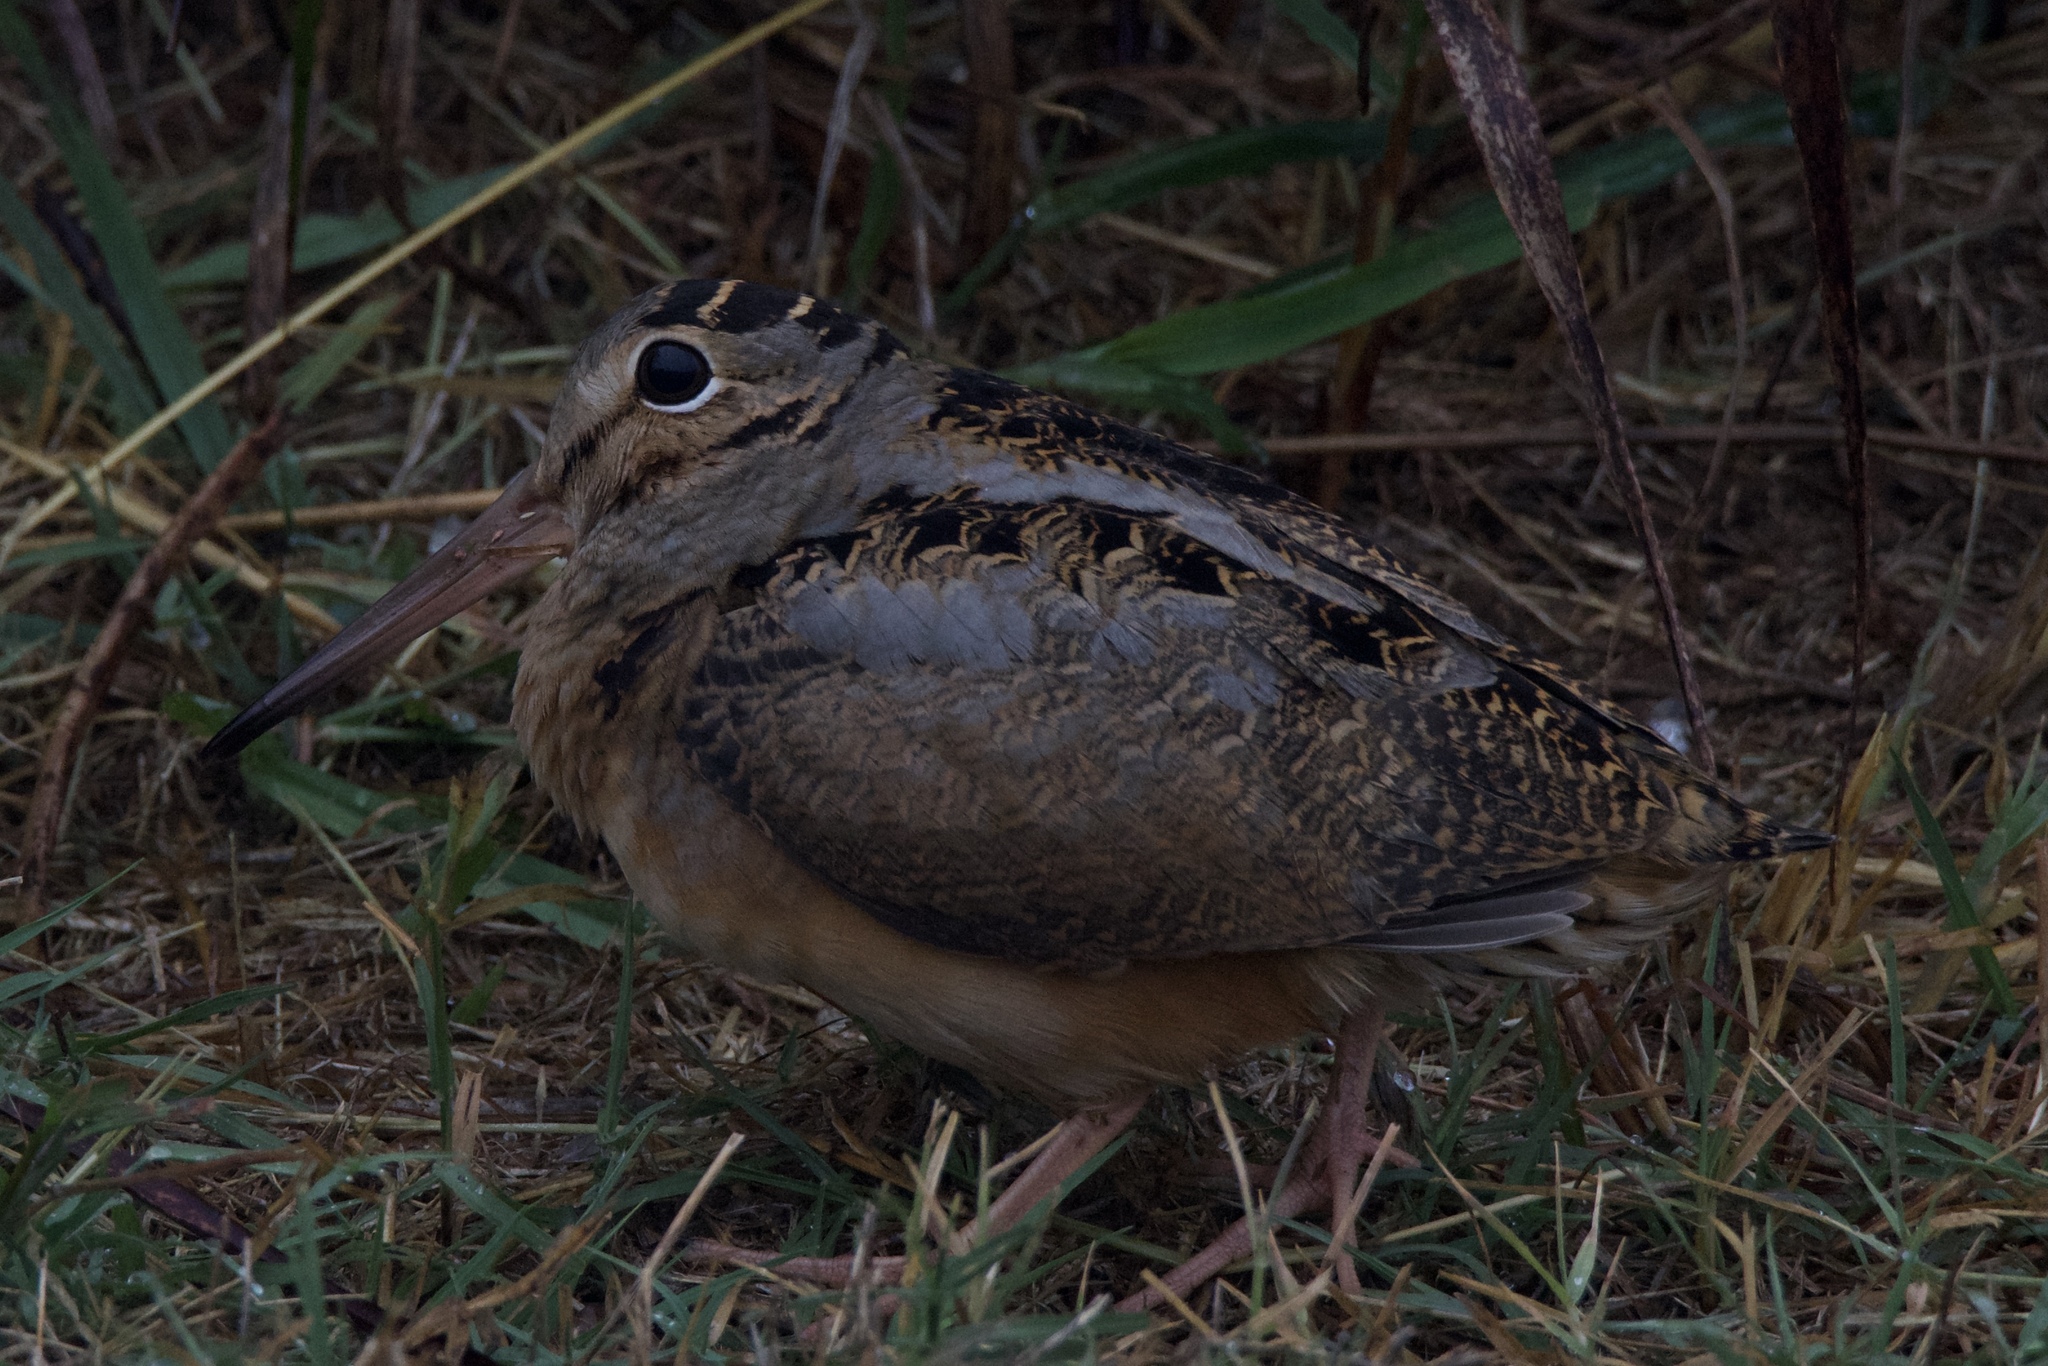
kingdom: Animalia
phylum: Chordata
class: Aves
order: Charadriiformes
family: Scolopacidae
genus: Scolopax
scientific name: Scolopax minor
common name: American woodcock
